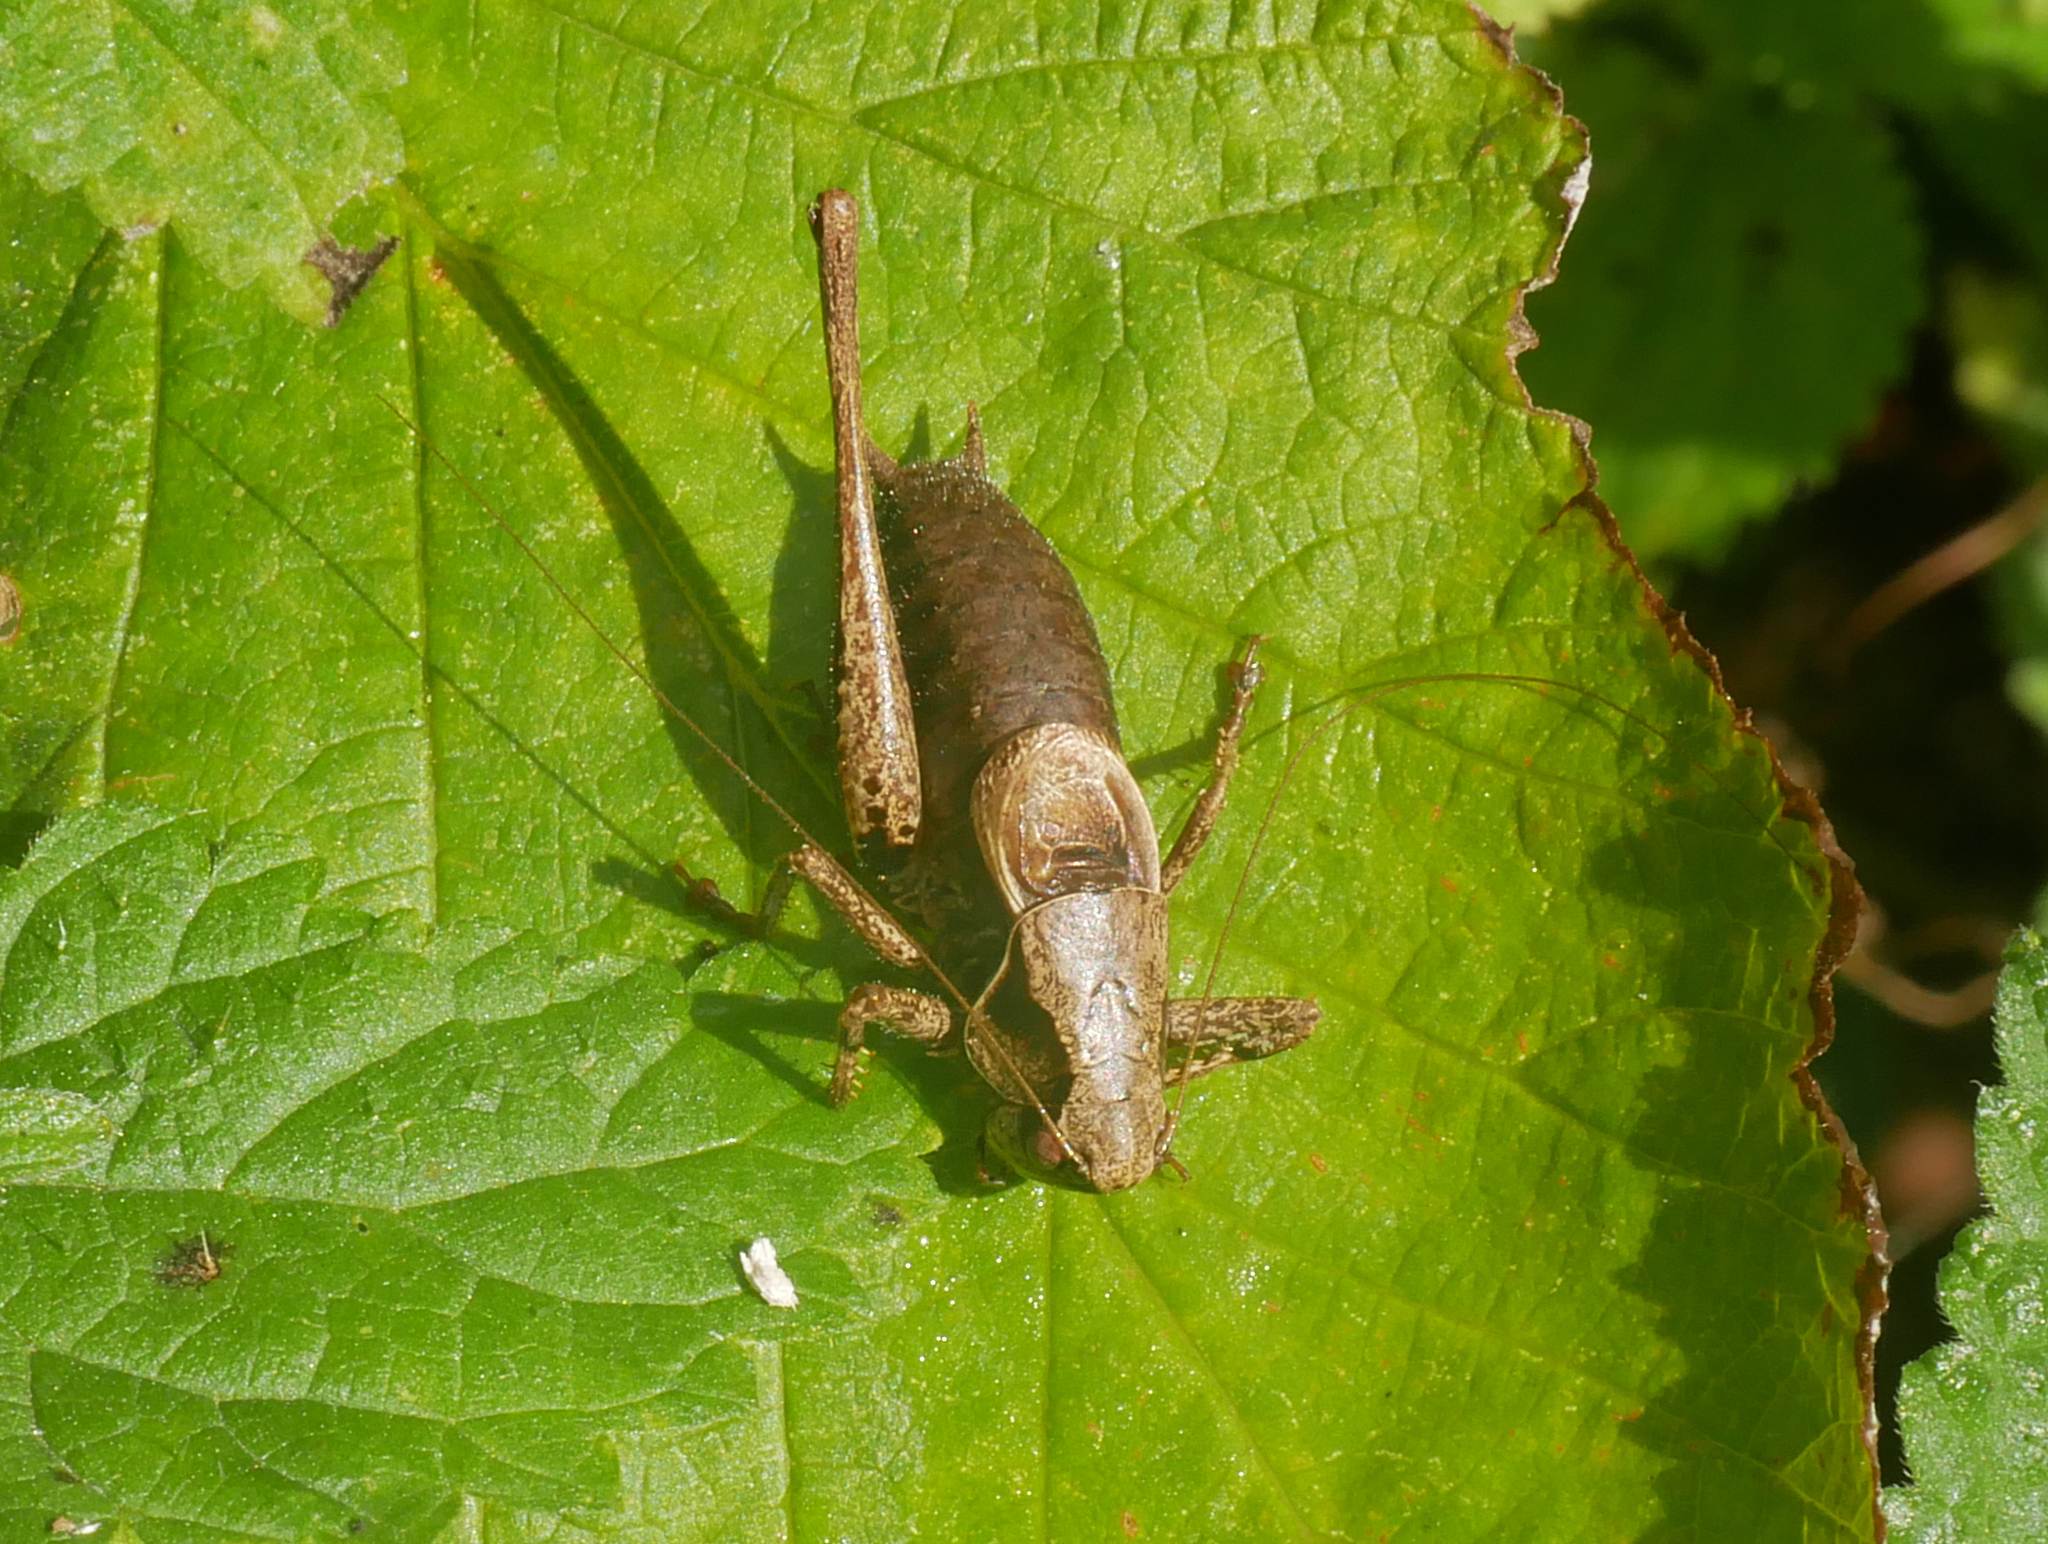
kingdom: Animalia
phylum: Arthropoda
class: Insecta
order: Orthoptera
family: Tettigoniidae
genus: Pholidoptera
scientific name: Pholidoptera griseoaptera
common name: Dark bush-cricket
